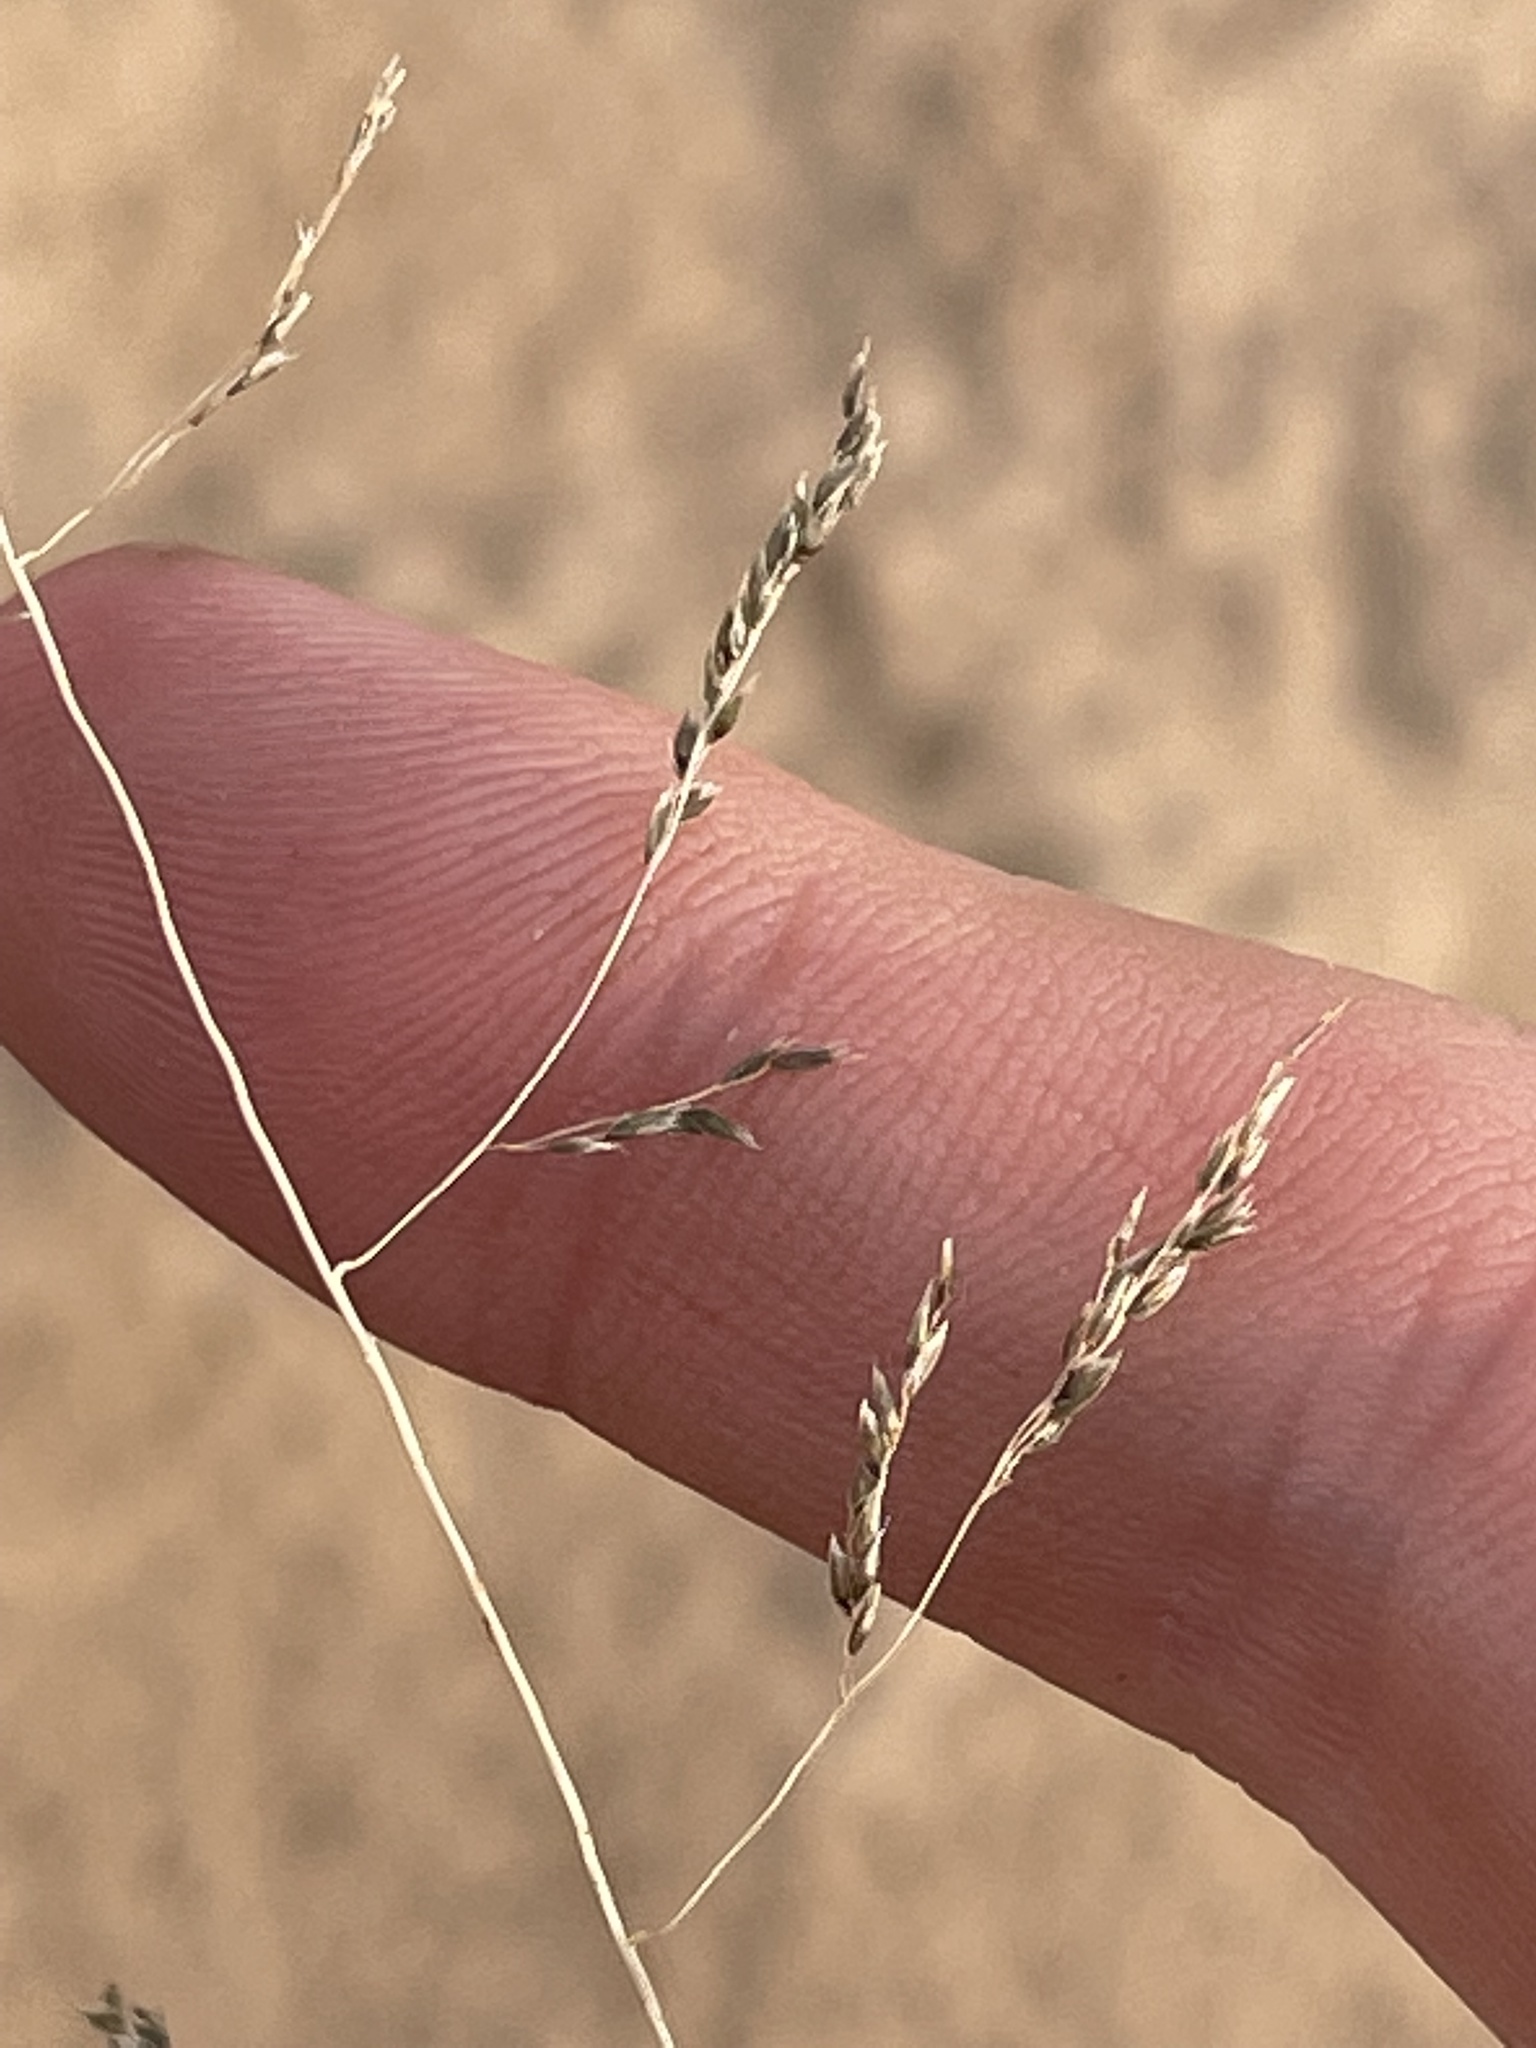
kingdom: Plantae
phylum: Tracheophyta
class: Liliopsida
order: Poales
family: Poaceae
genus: Sporobolus
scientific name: Sporobolus cryptandrus
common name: Sand dropseed
